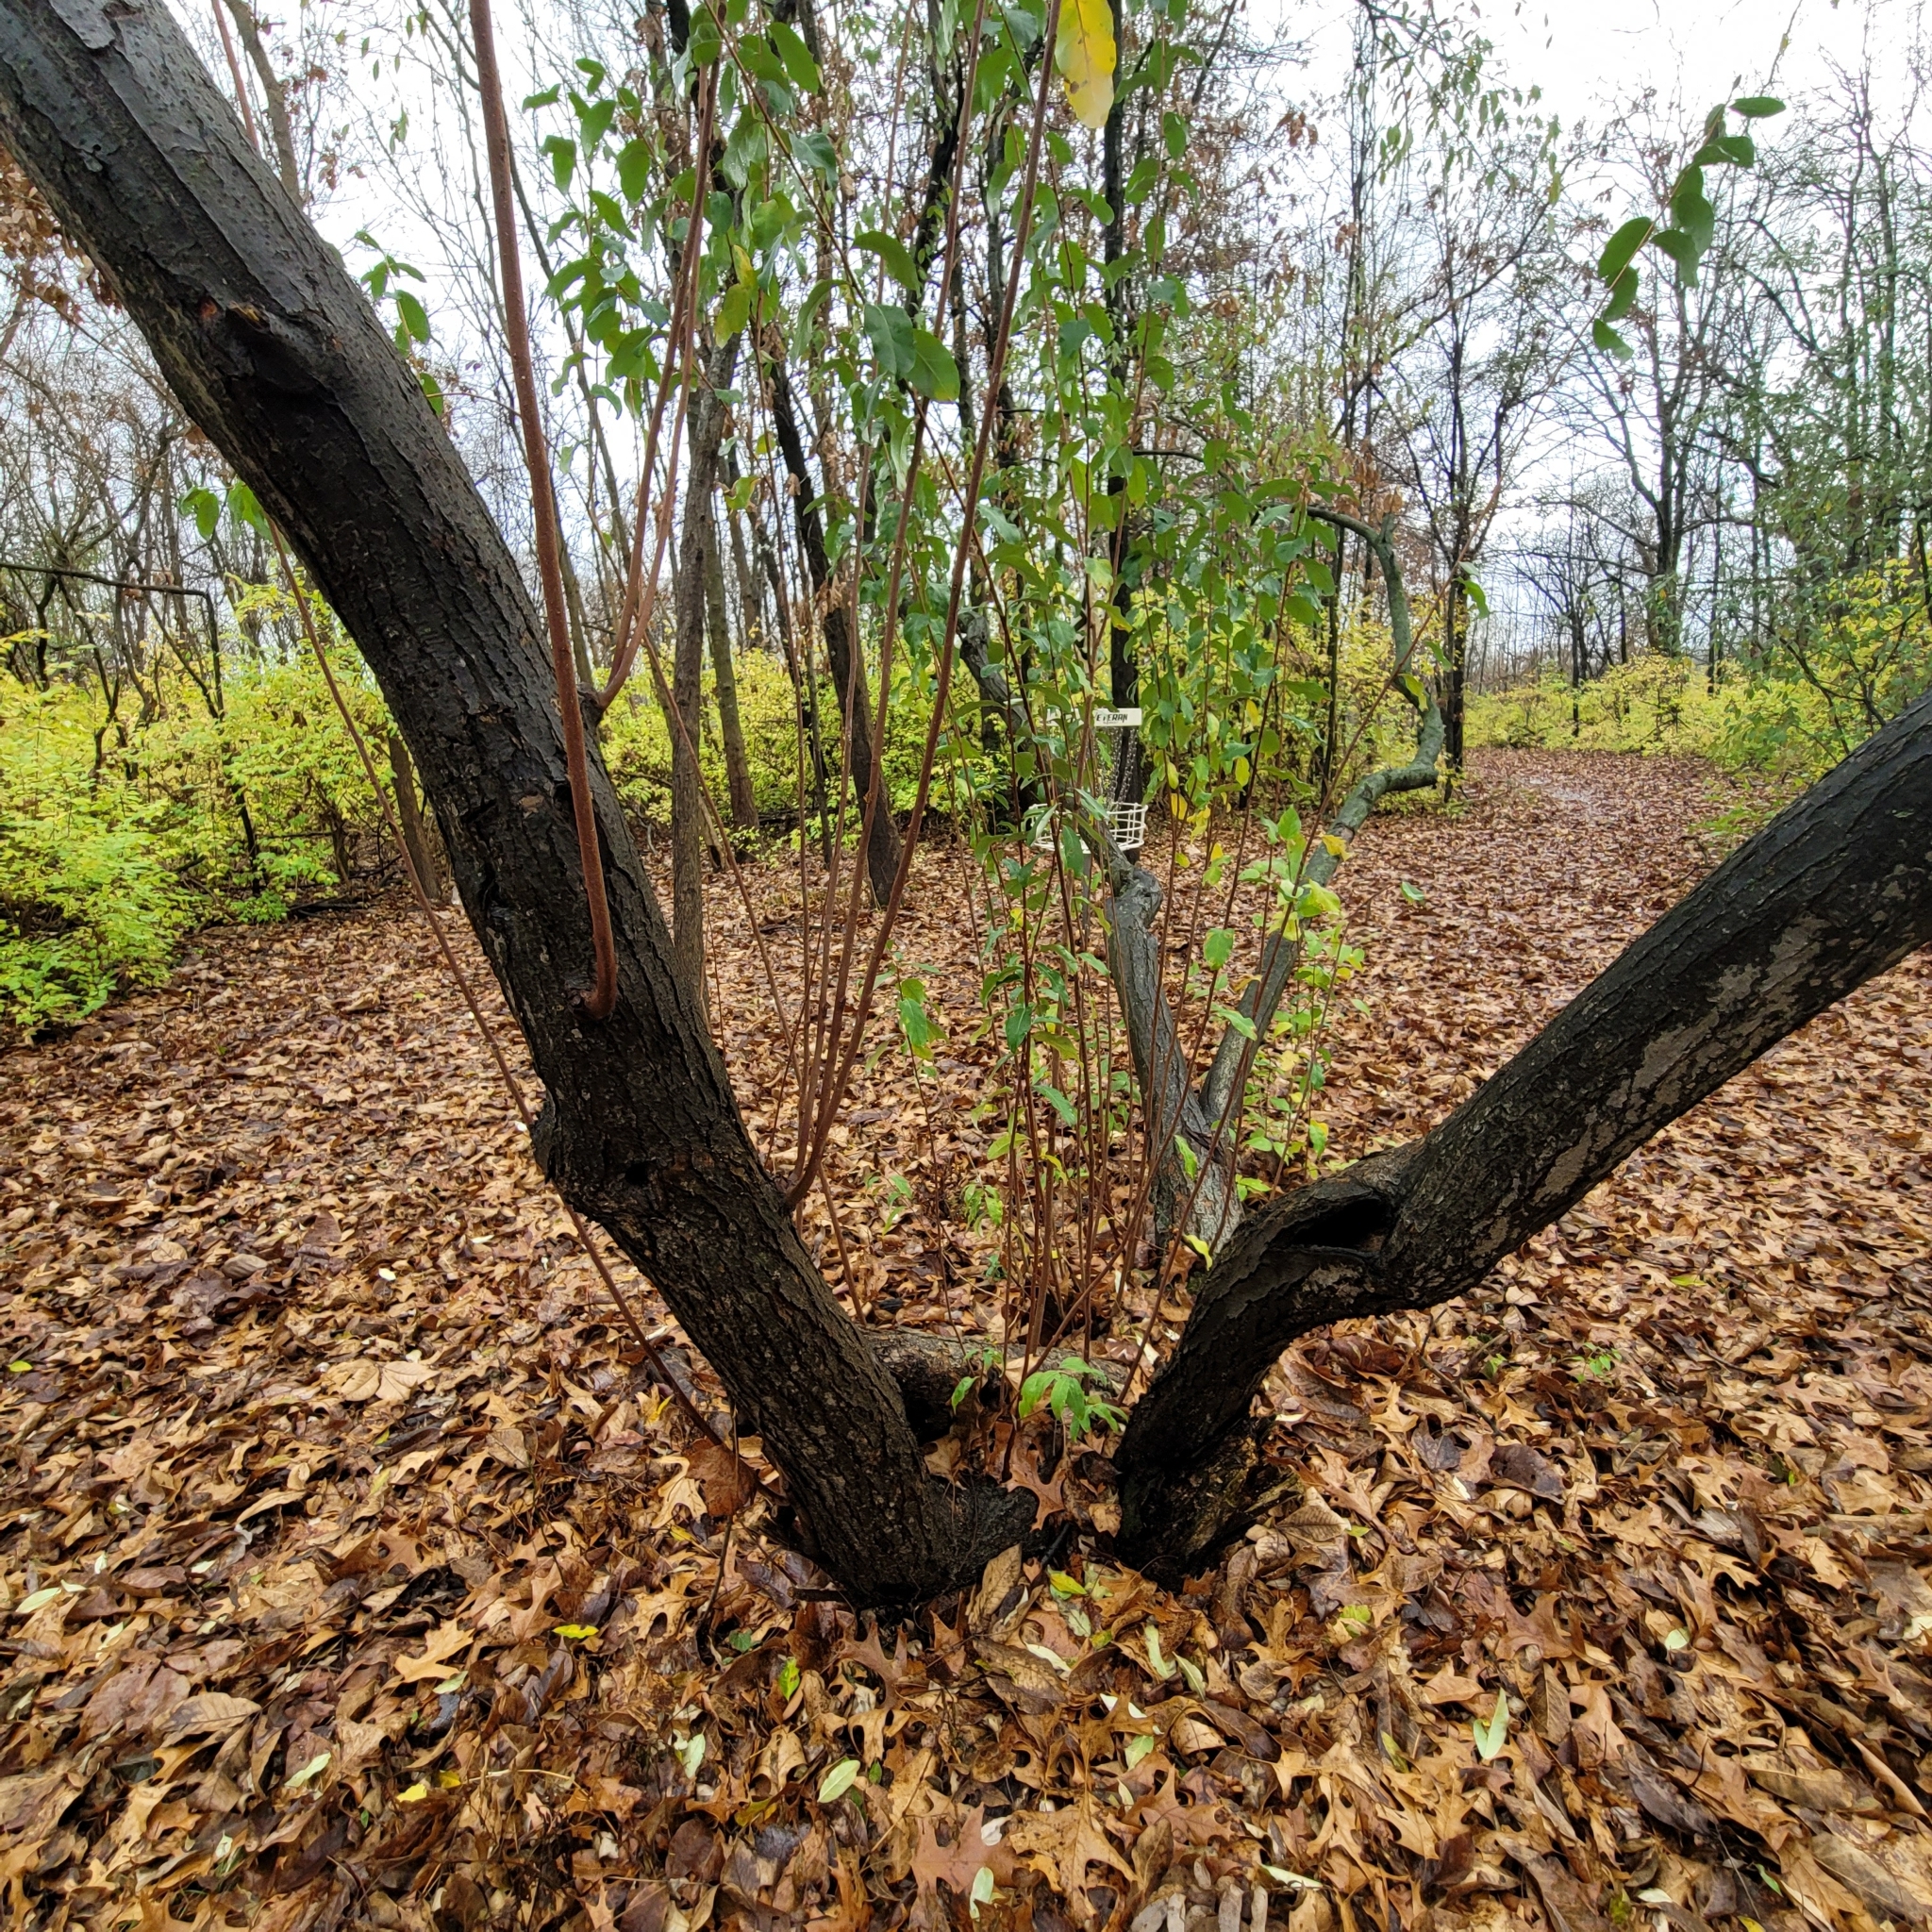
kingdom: Plantae
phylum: Tracheophyta
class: Magnoliopsida
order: Rosales
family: Elaeagnaceae
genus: Elaeagnus
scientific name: Elaeagnus umbellata
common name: Autumn olive
